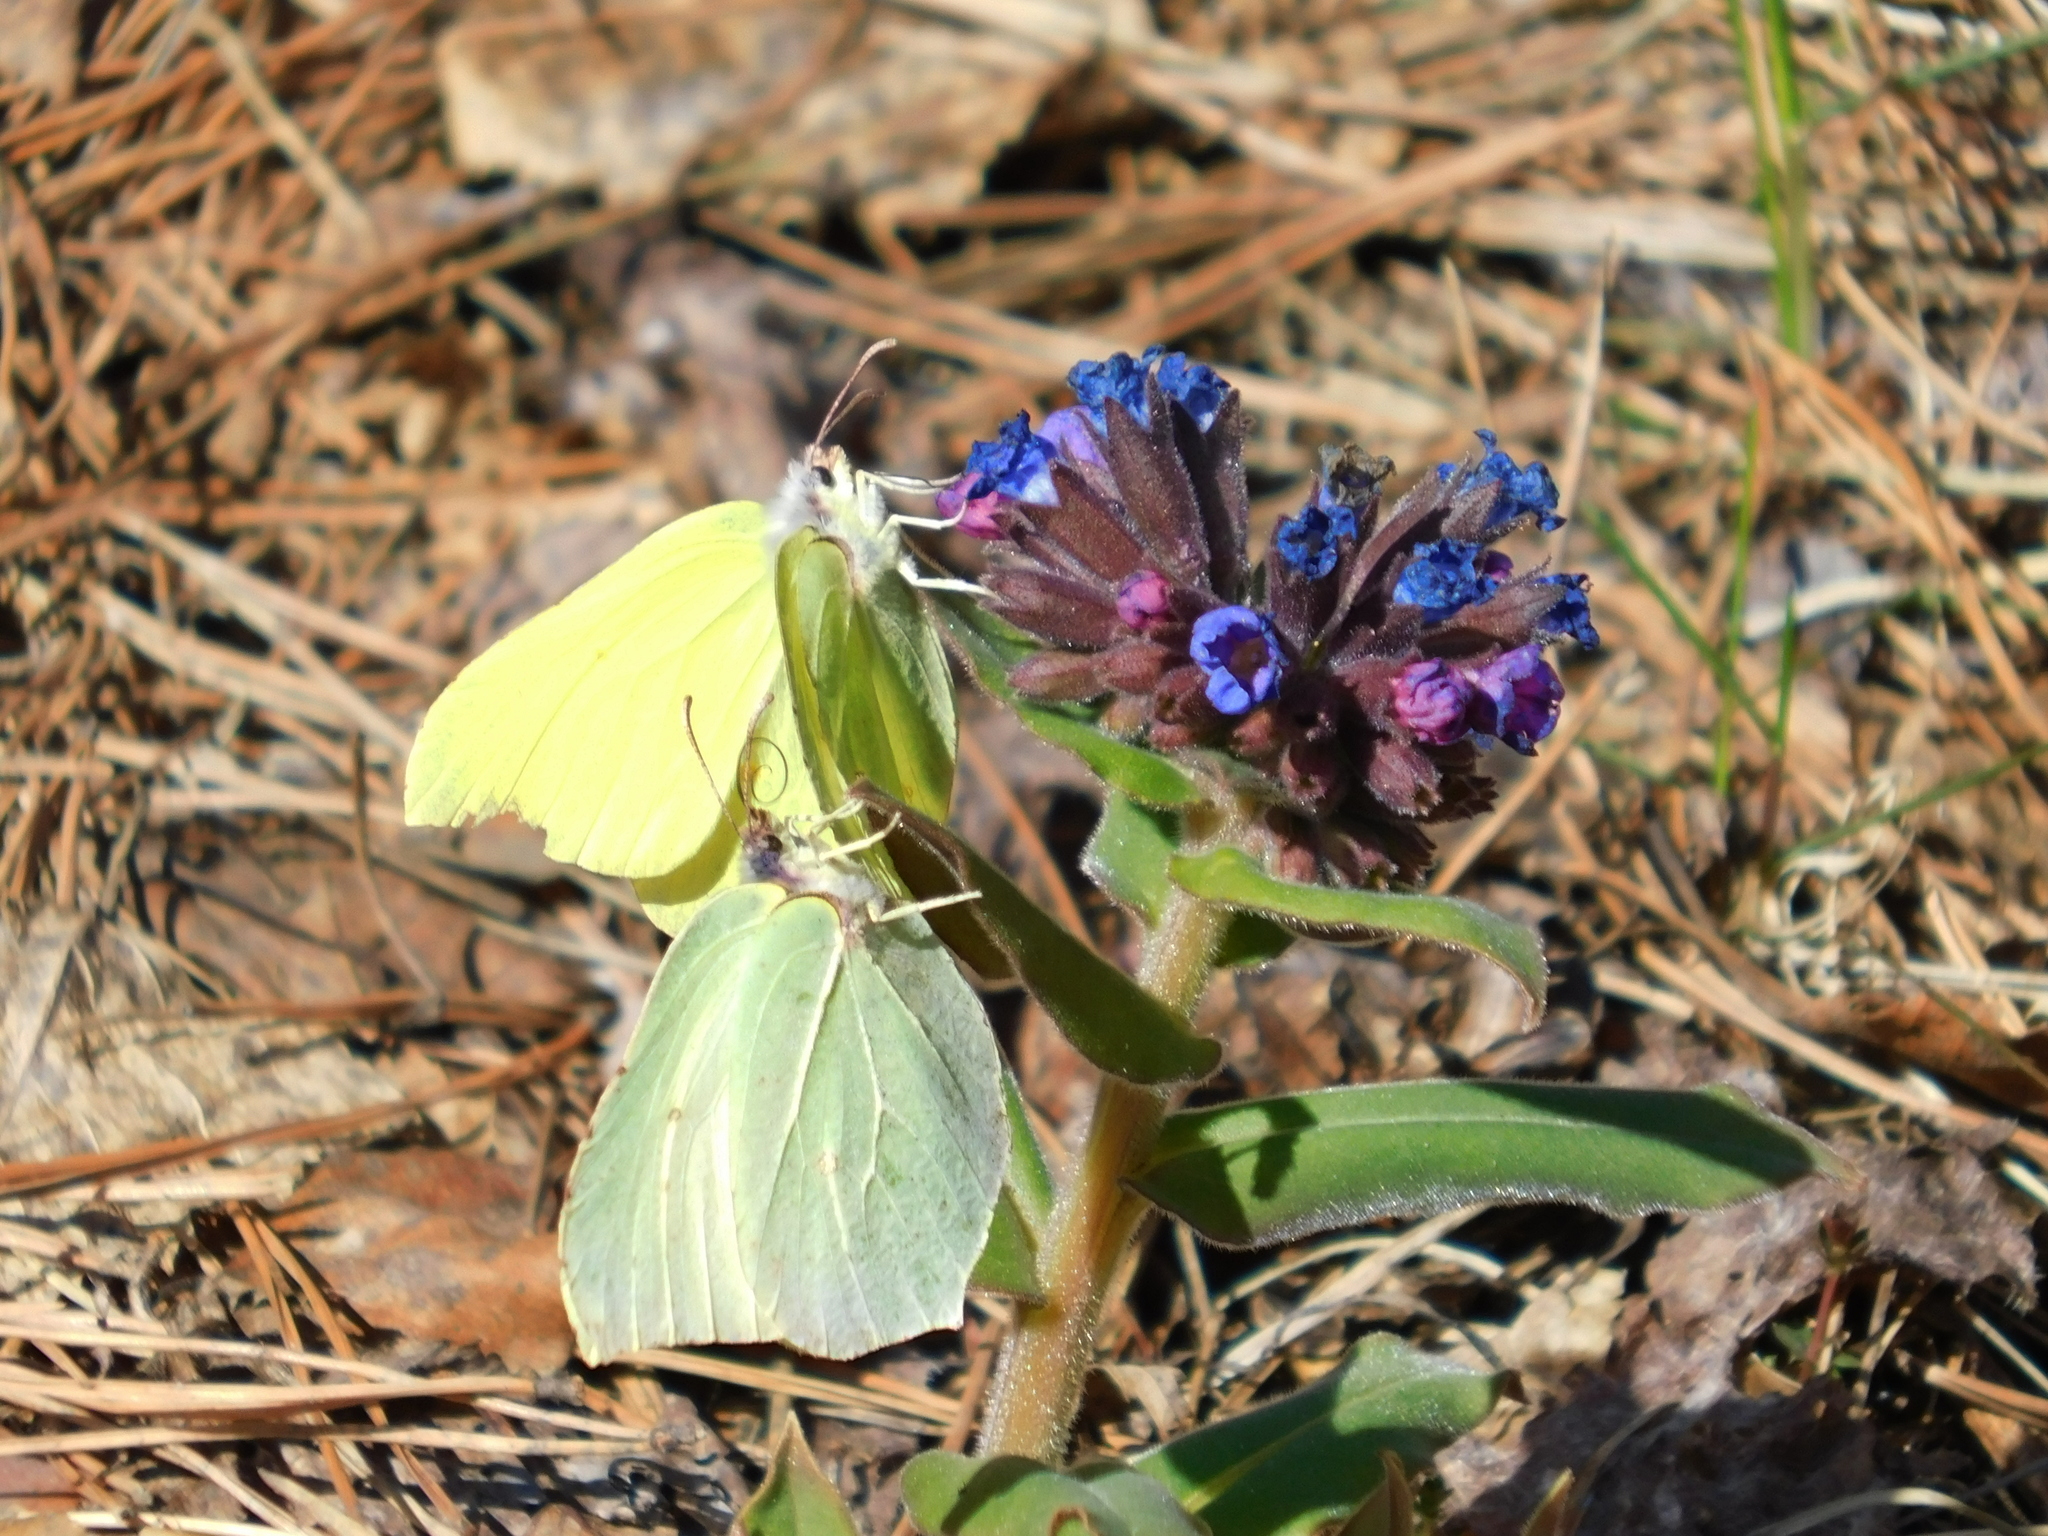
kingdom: Animalia
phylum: Arthropoda
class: Insecta
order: Lepidoptera
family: Pieridae
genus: Gonepteryx
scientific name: Gonepteryx rhamni
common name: Brimstone
